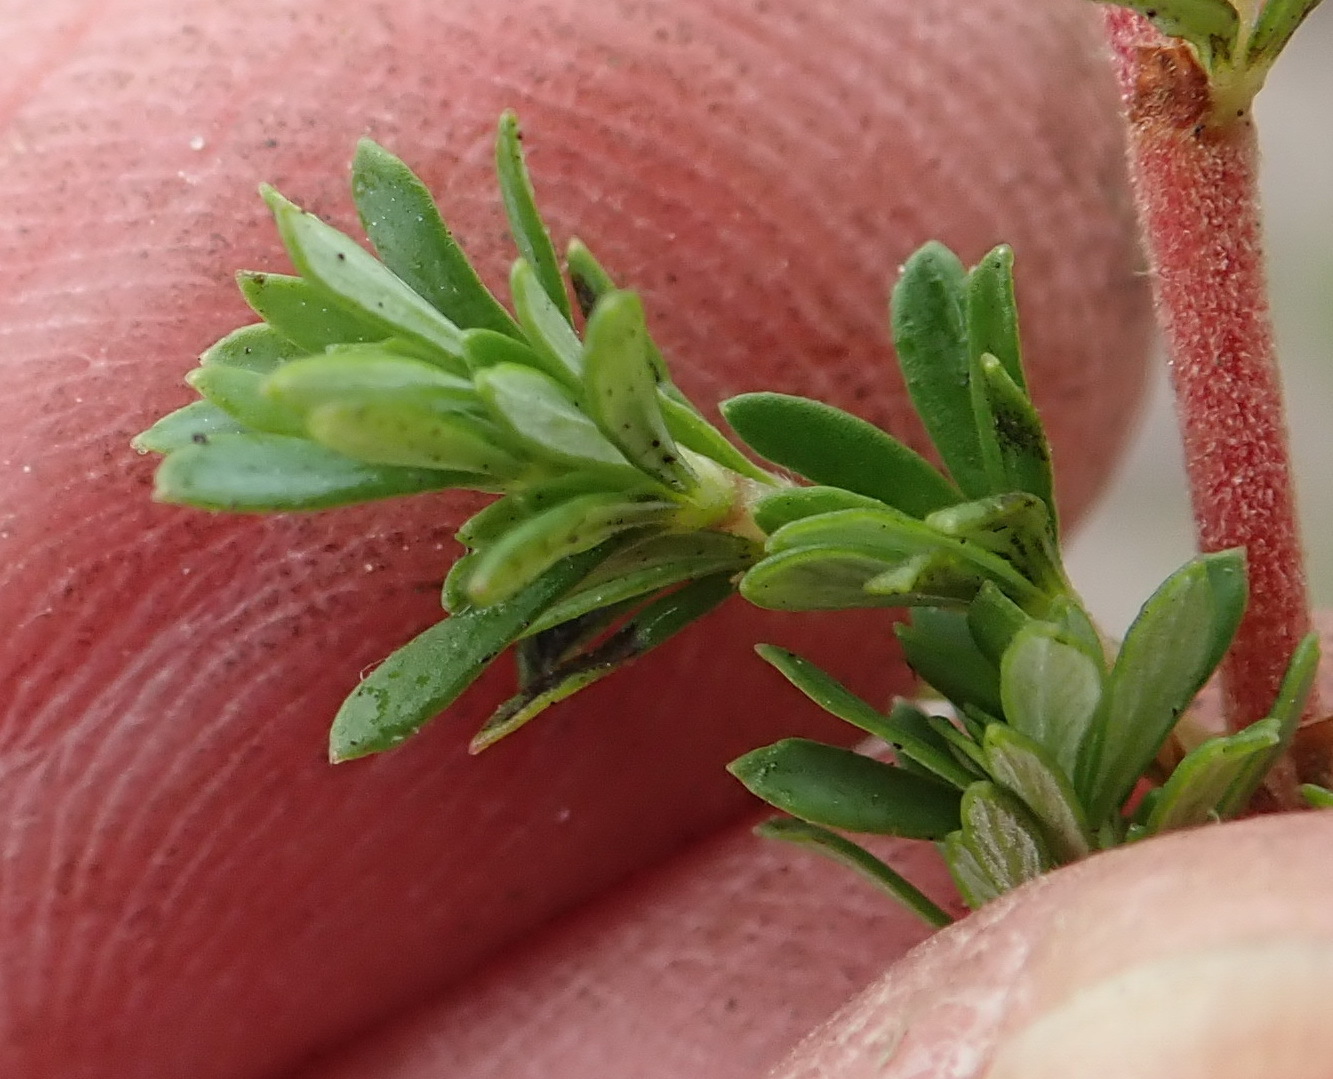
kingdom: Plantae
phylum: Tracheophyta
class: Magnoliopsida
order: Rosales
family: Rosaceae
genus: Cliffortia
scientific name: Cliffortia serpyllifolia
